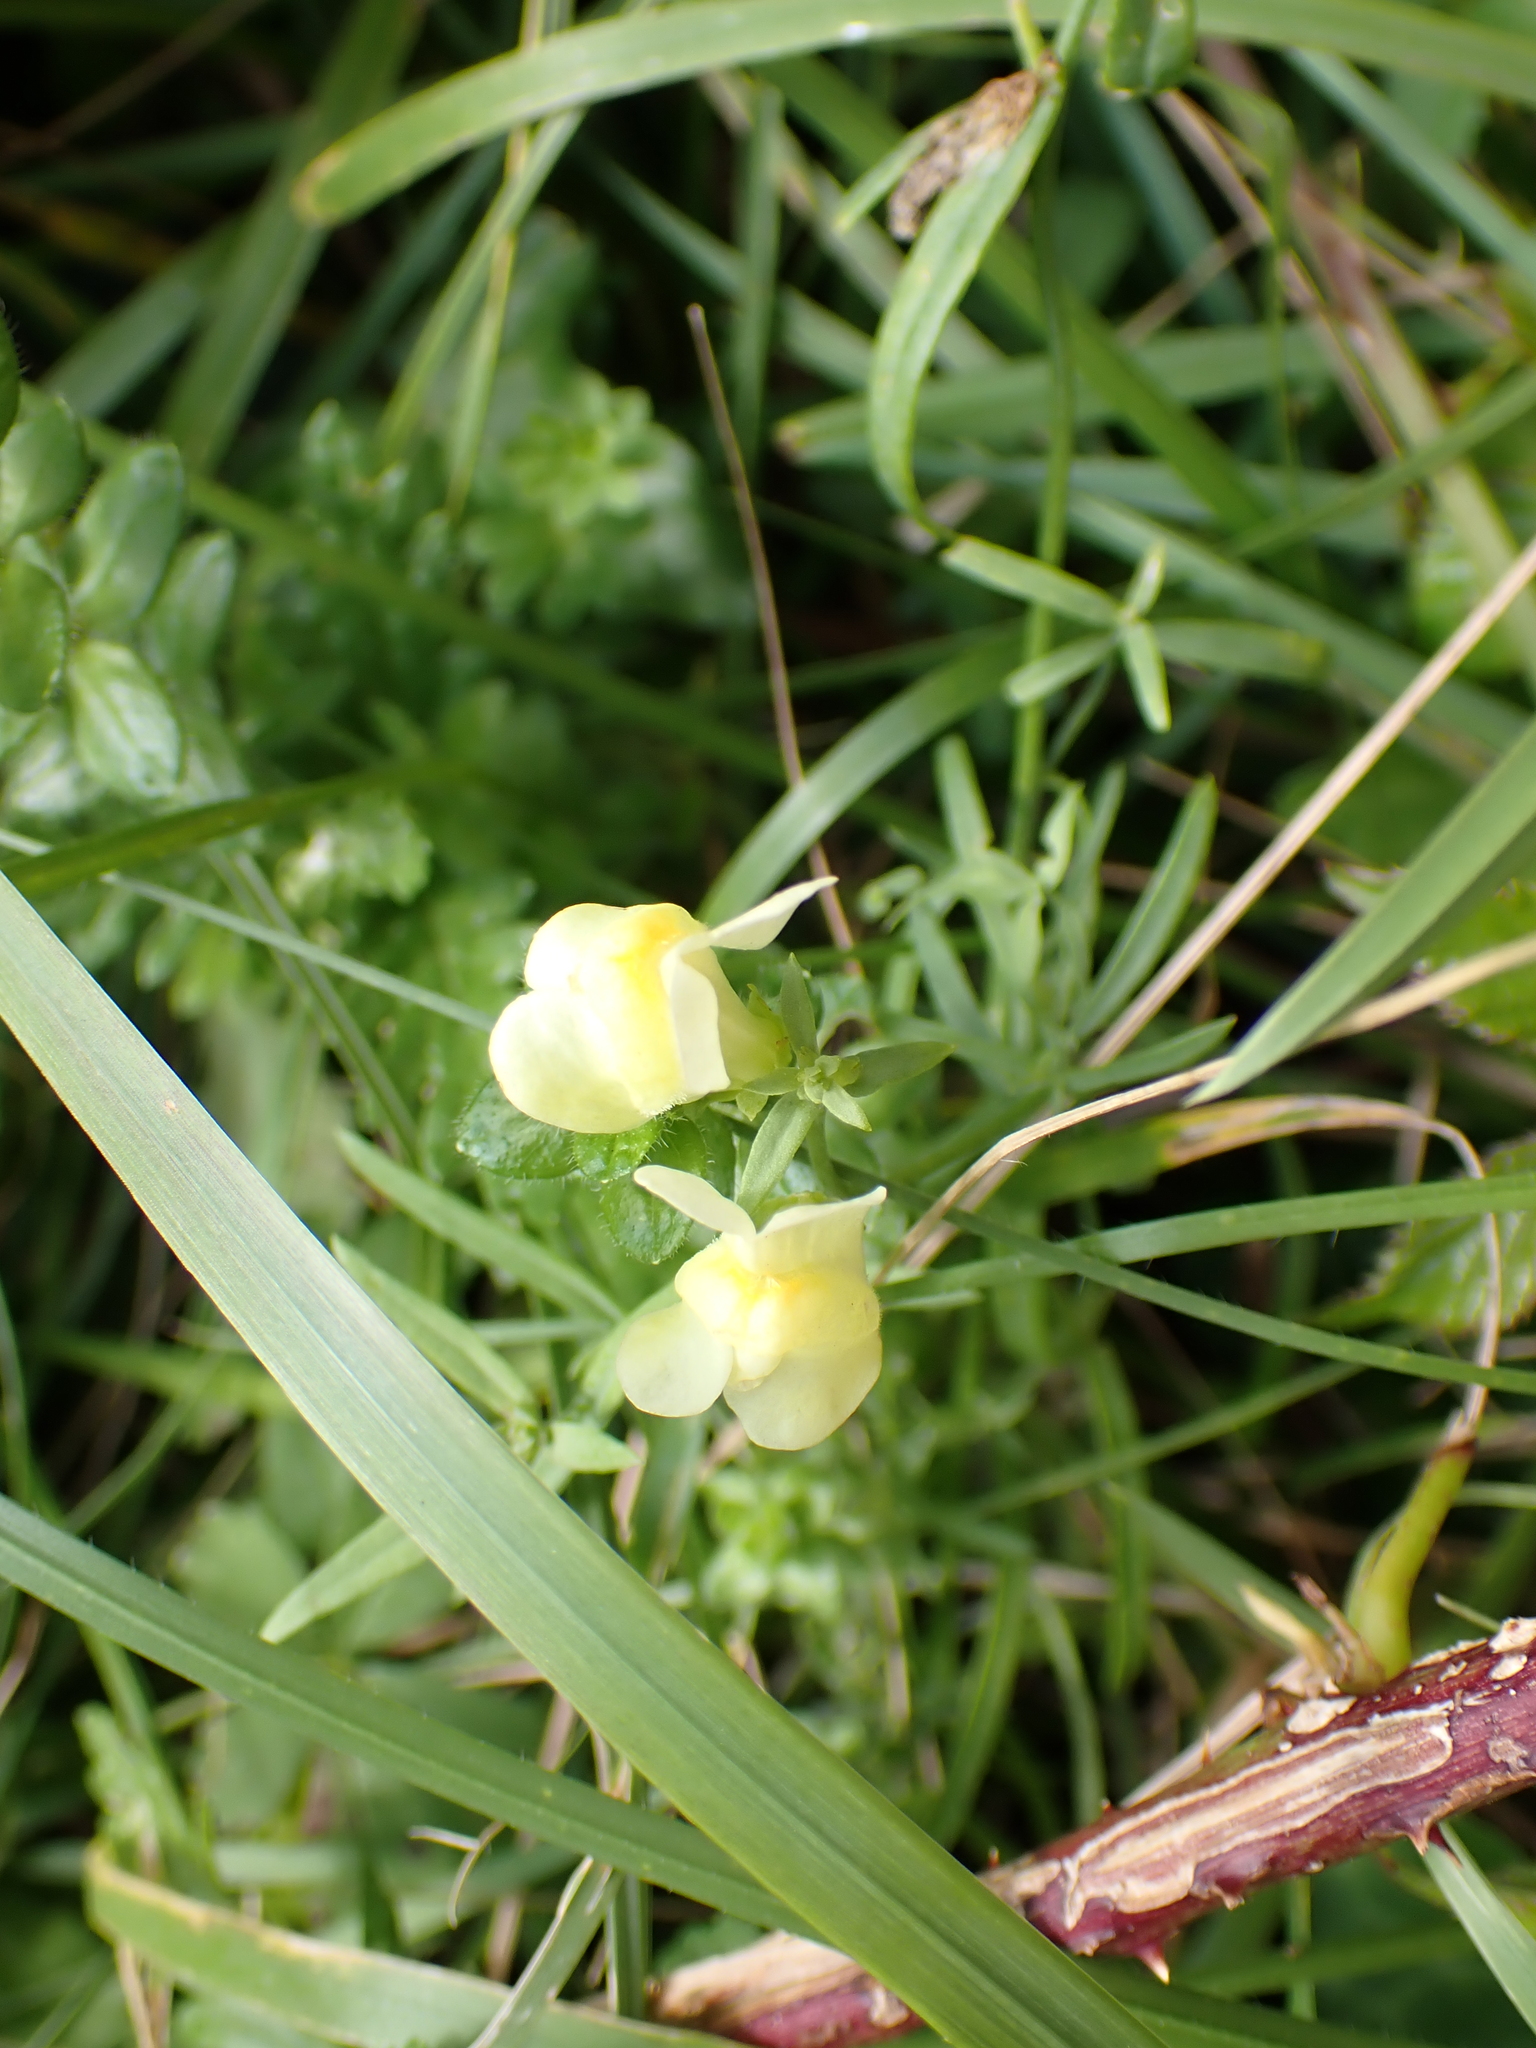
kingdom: Plantae
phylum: Tracheophyta
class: Magnoliopsida
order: Lamiales
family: Plantaginaceae
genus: Linaria
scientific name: Linaria vulgaris
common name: Butter and eggs
